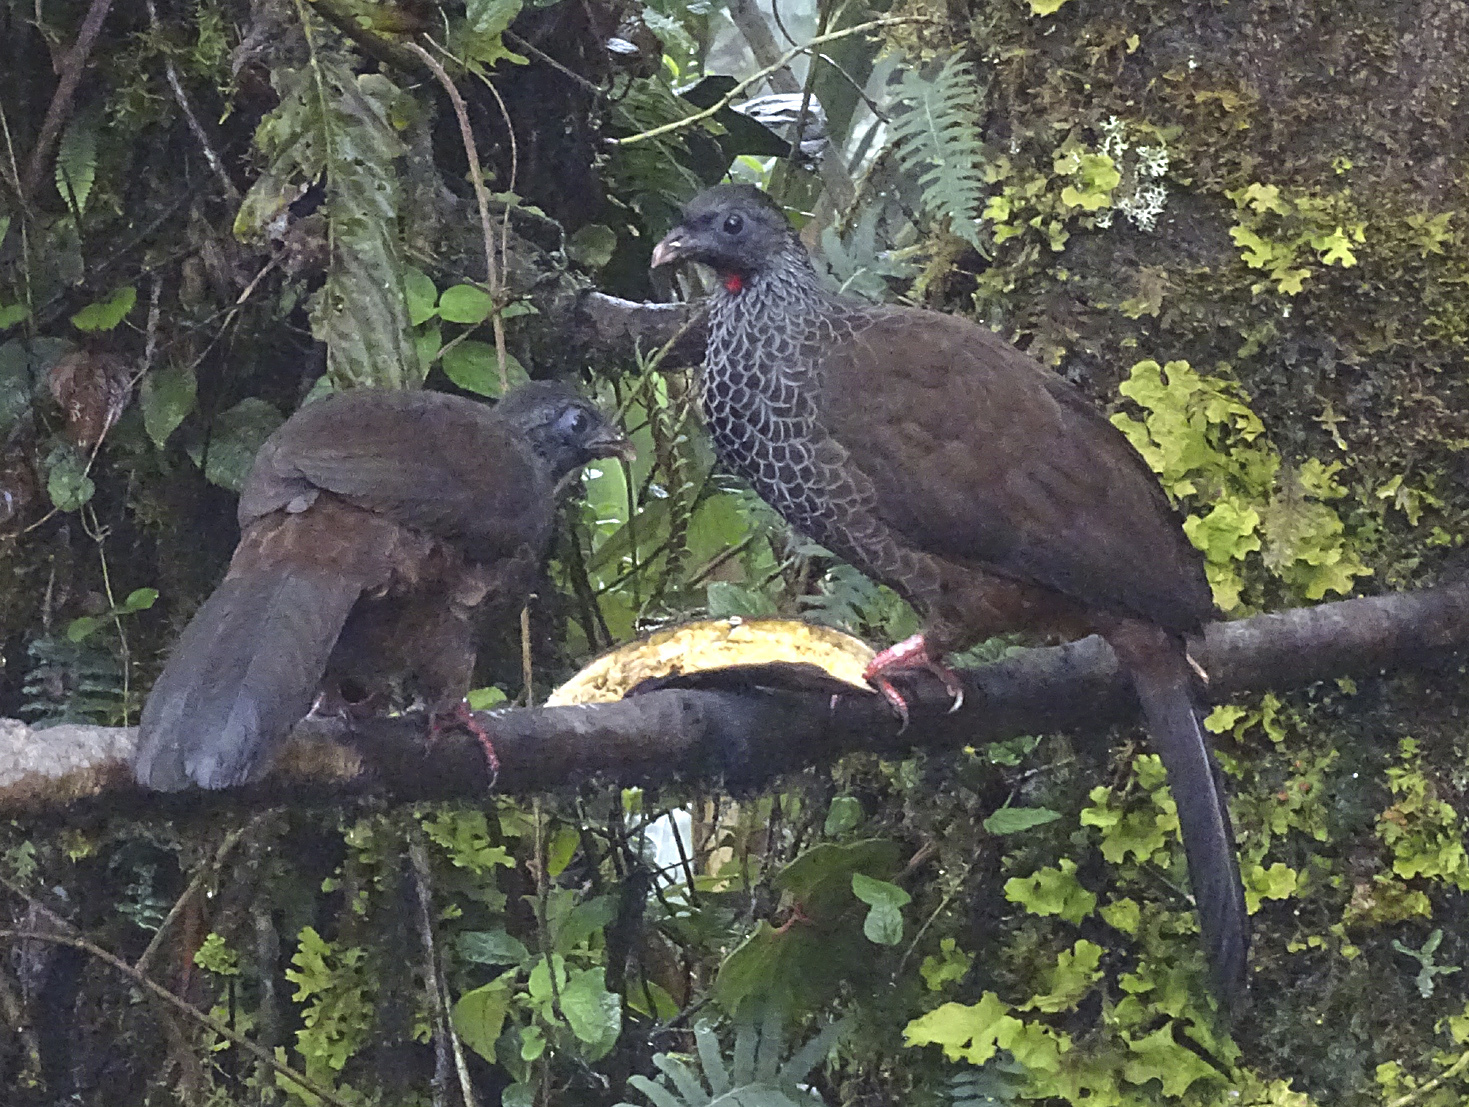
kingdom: Animalia
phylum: Chordata
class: Aves
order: Galliformes
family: Cracidae
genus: Penelope
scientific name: Penelope montagnii
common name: Andean guan
